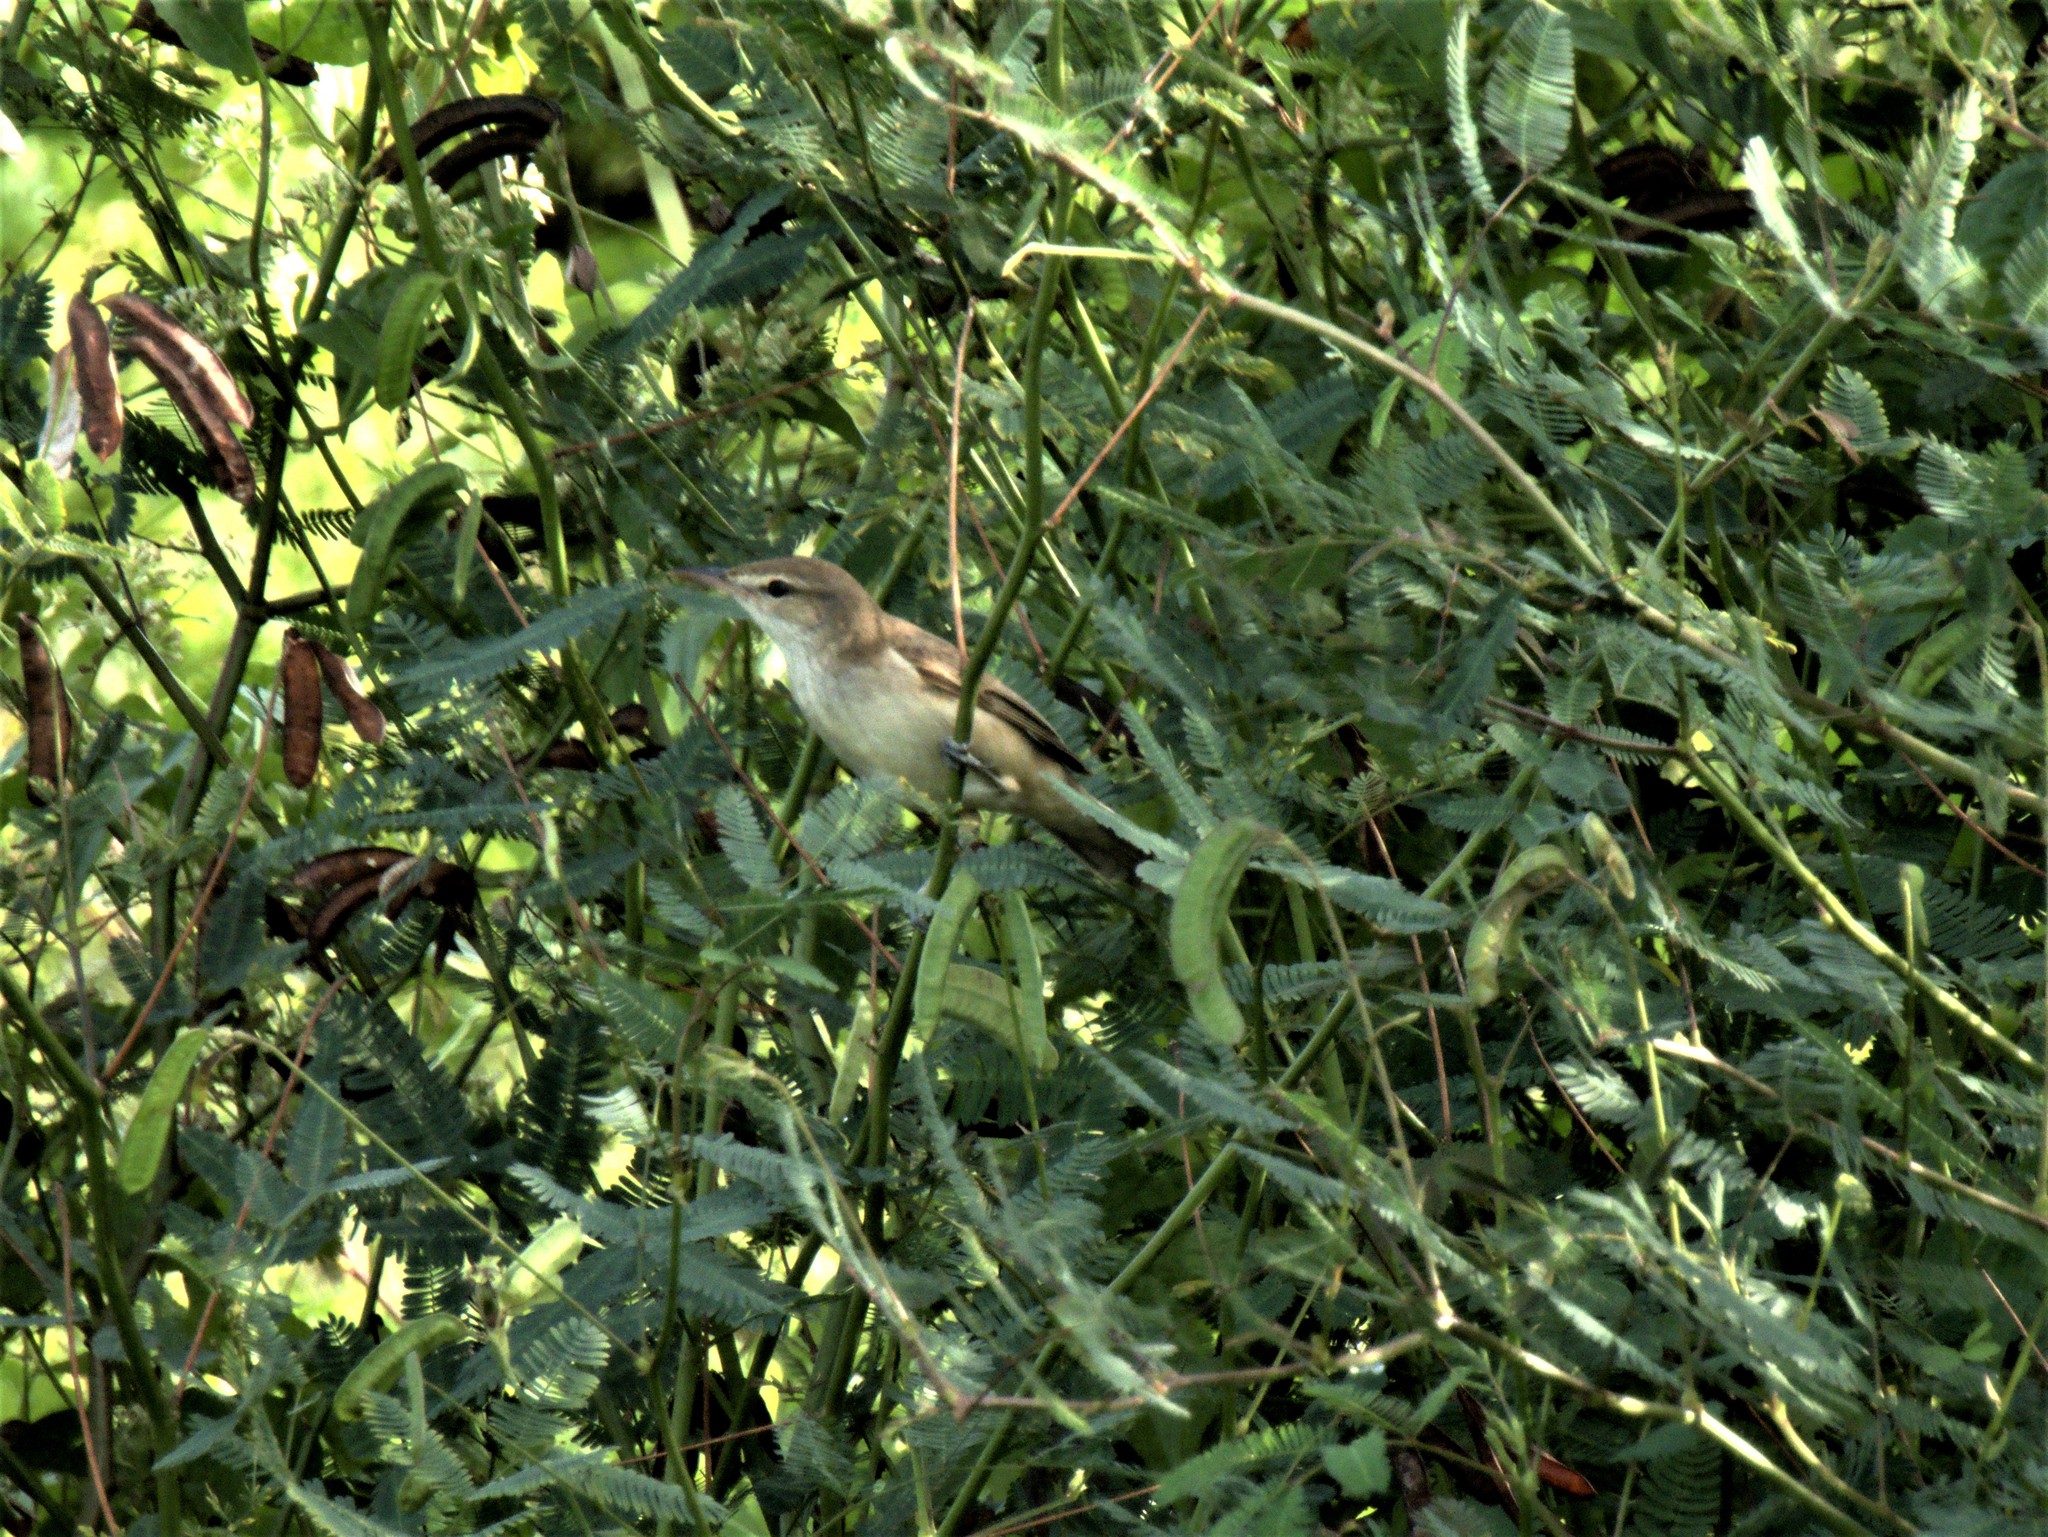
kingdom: Animalia
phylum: Chordata
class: Aves
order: Passeriformes
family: Acrocephalidae
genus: Acrocephalus
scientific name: Acrocephalus orientalis
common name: Oriental reed warbler
